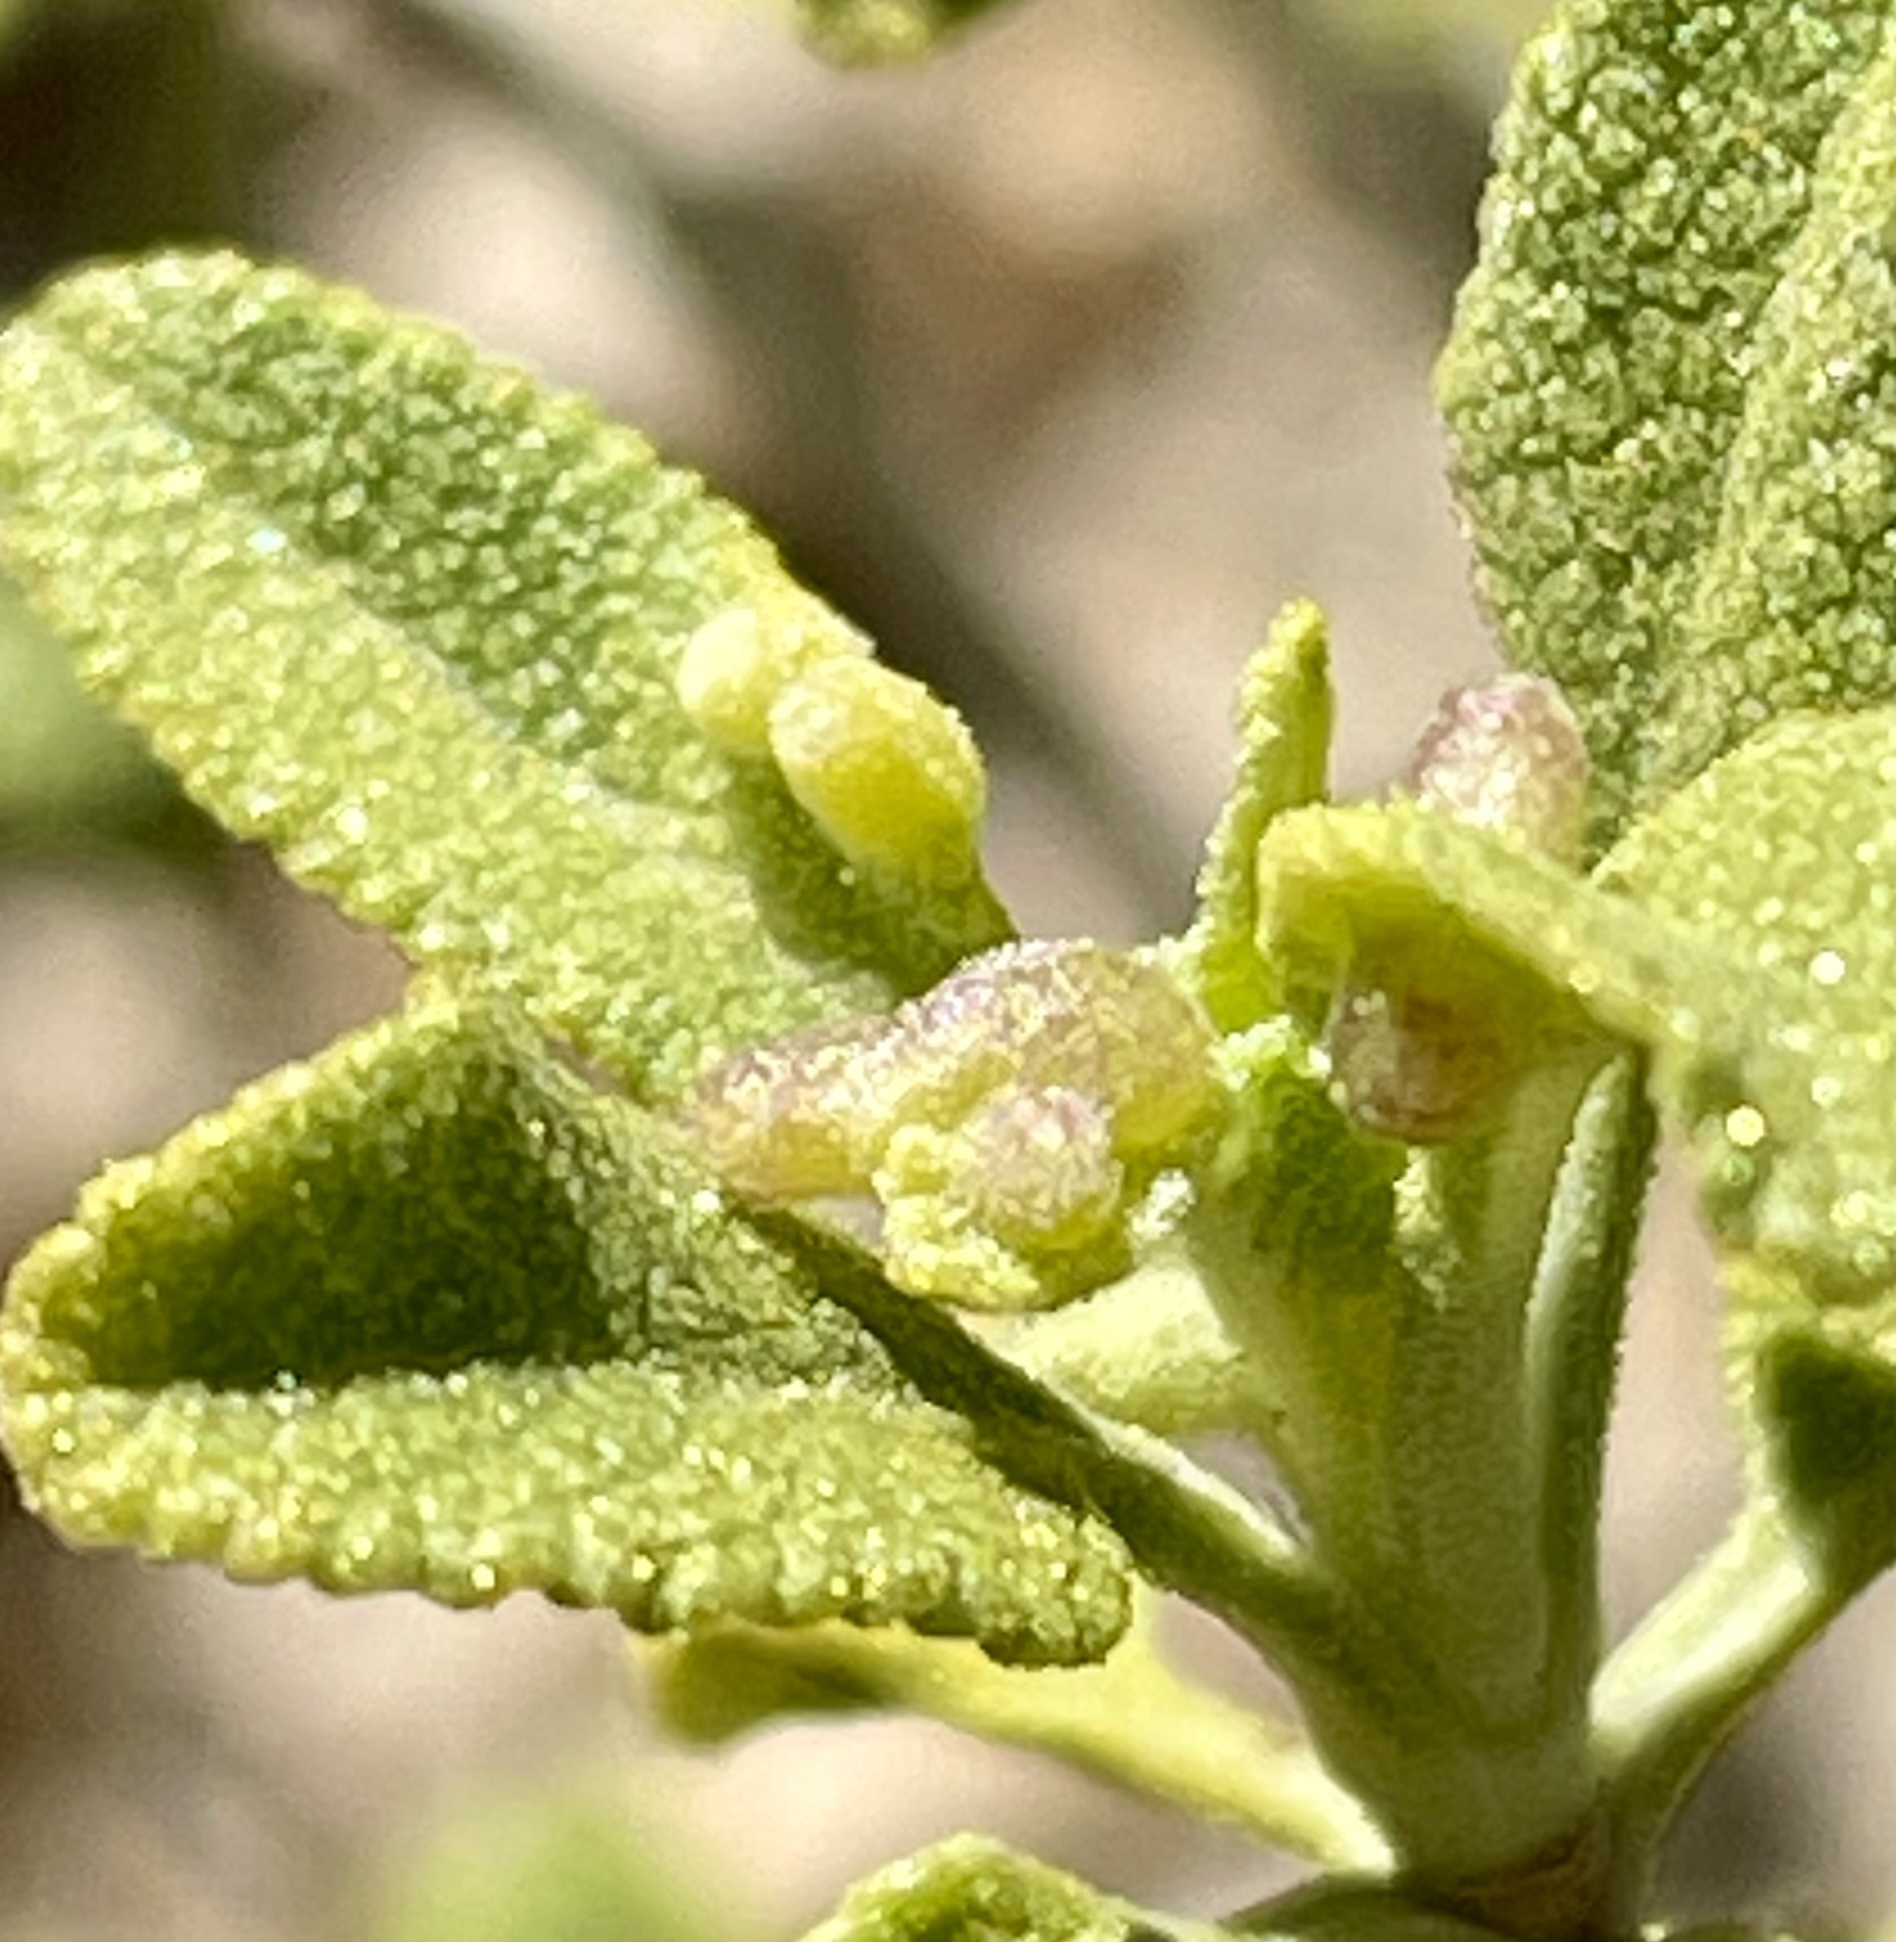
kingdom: Animalia
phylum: Arthropoda
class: Insecta
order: Diptera
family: Cecidomyiidae
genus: Rhopalomyia
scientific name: Rhopalomyia audibertiae
